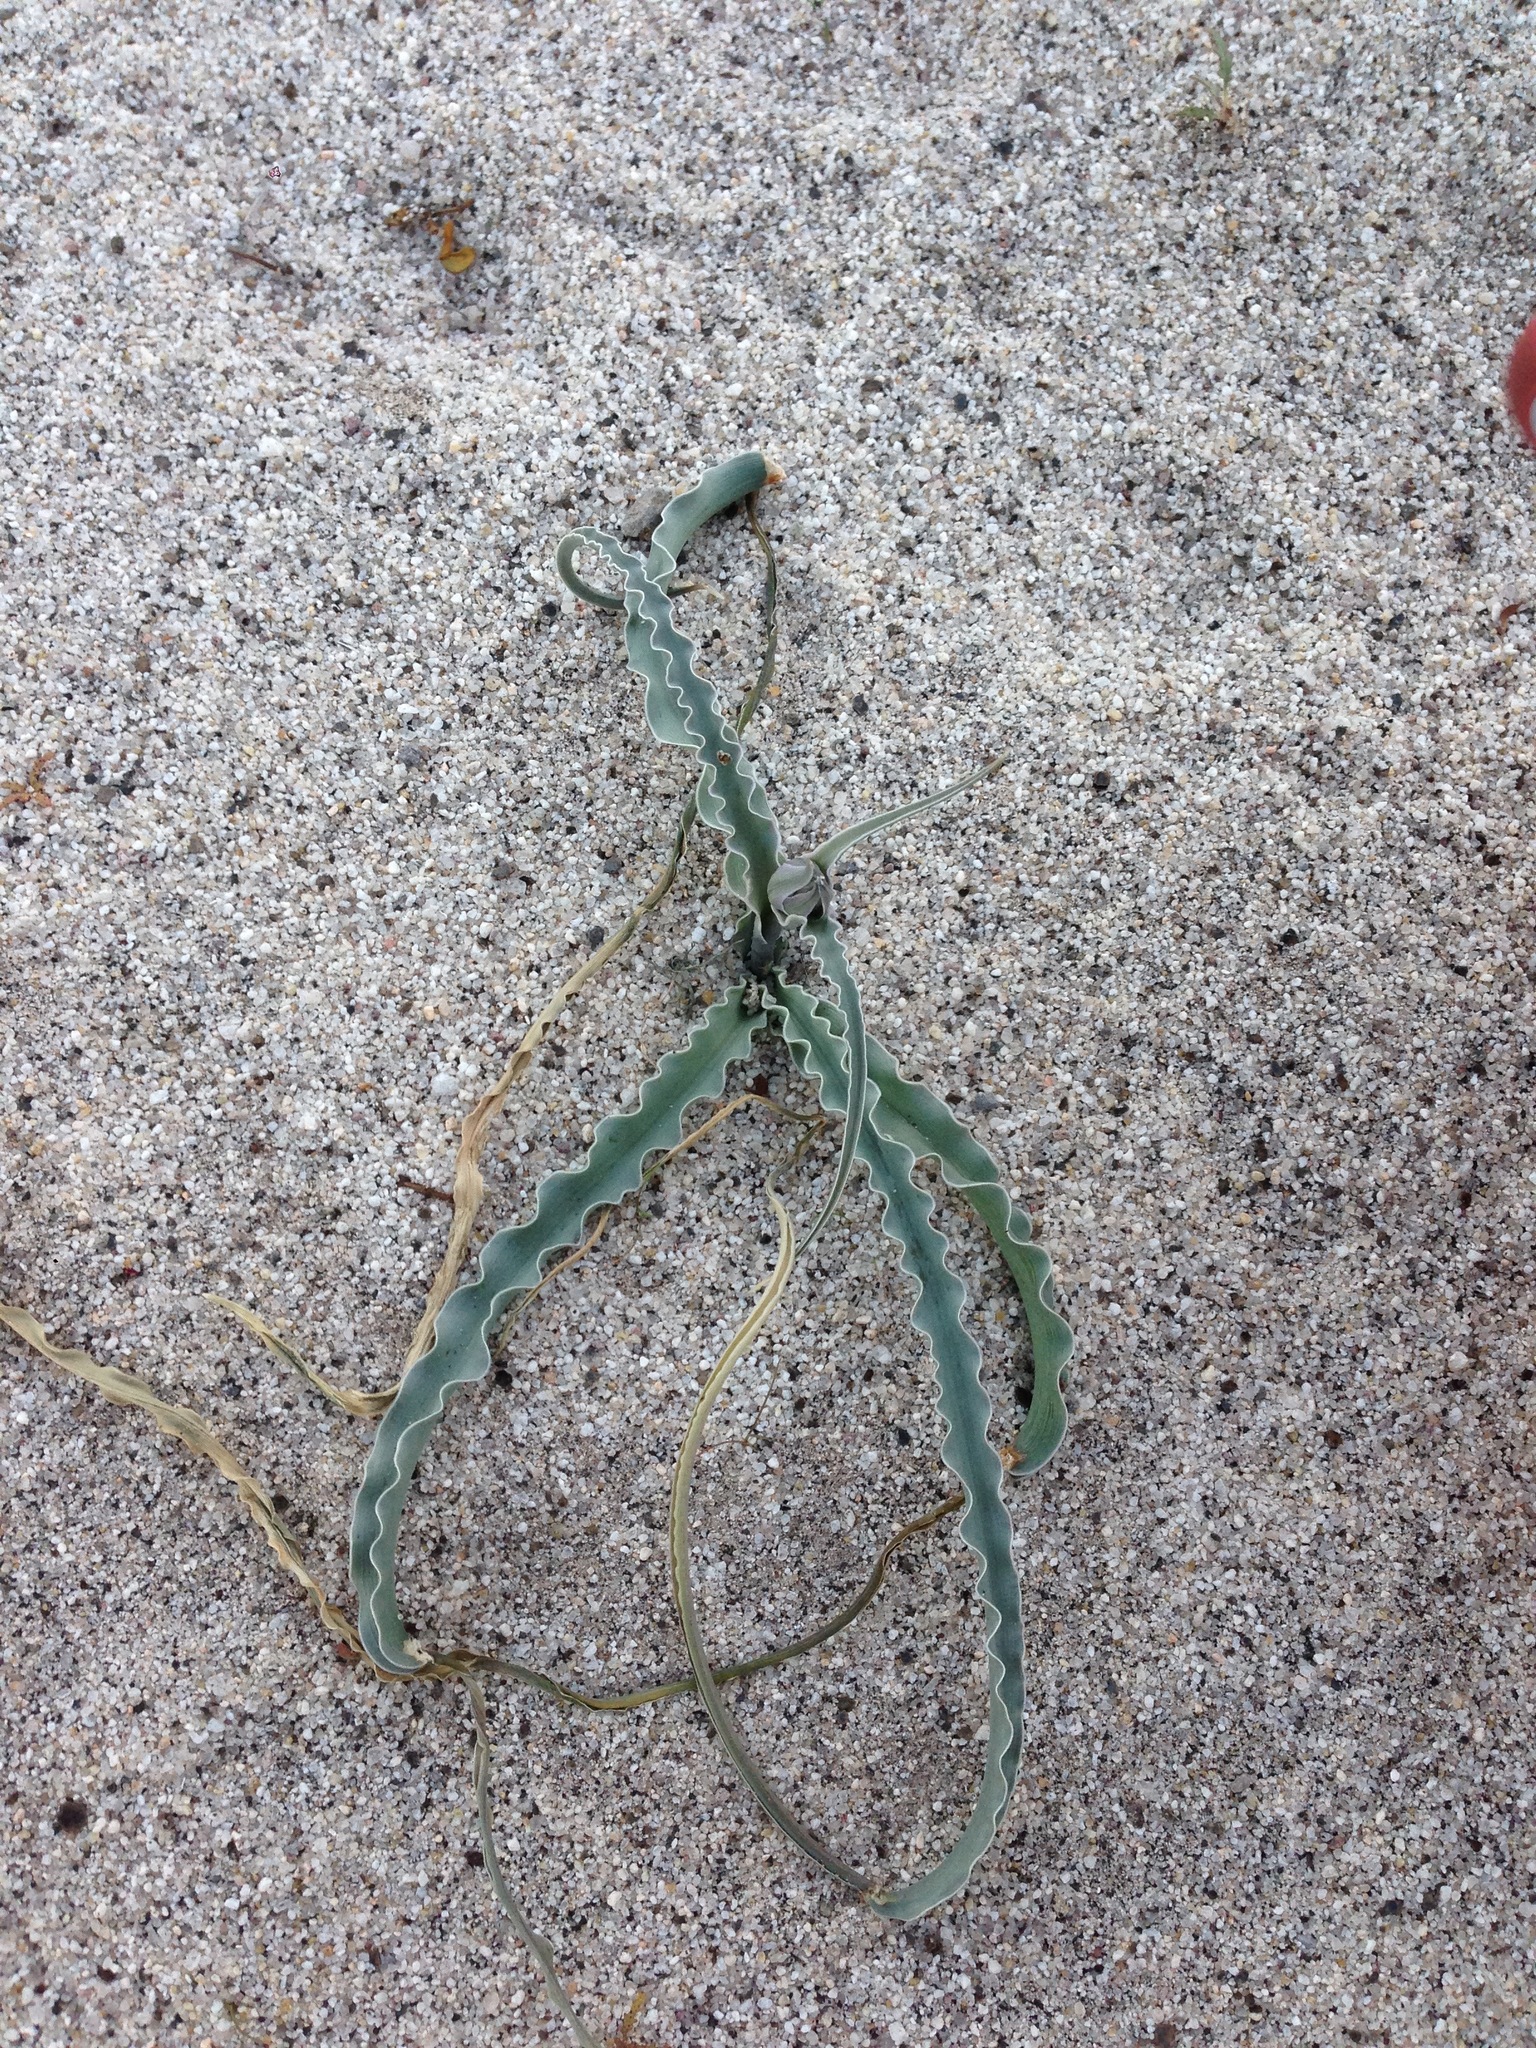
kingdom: Plantae
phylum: Tracheophyta
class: Liliopsida
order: Asparagales
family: Asparagaceae
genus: Hesperocallis
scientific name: Hesperocallis undulata
